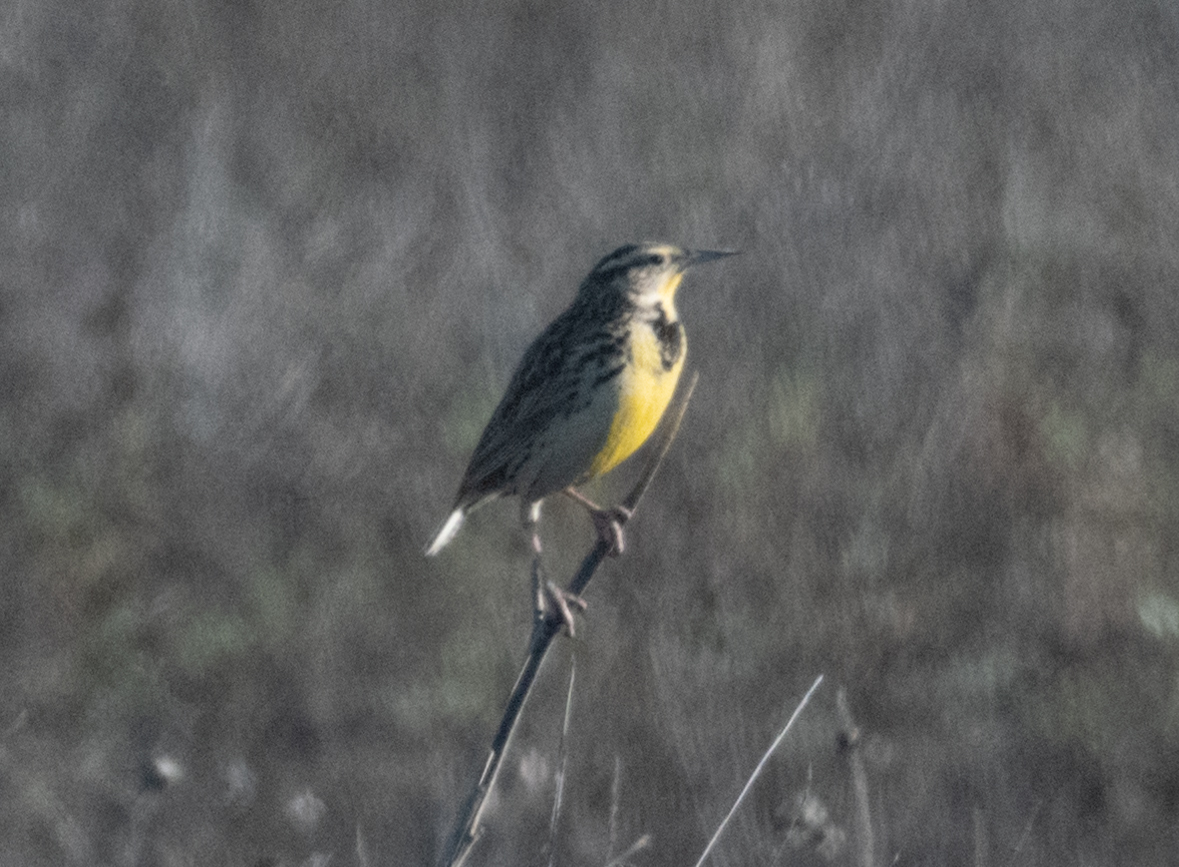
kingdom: Animalia
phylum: Chordata
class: Aves
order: Passeriformes
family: Icteridae
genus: Sturnella
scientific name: Sturnella neglecta
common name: Western meadowlark
